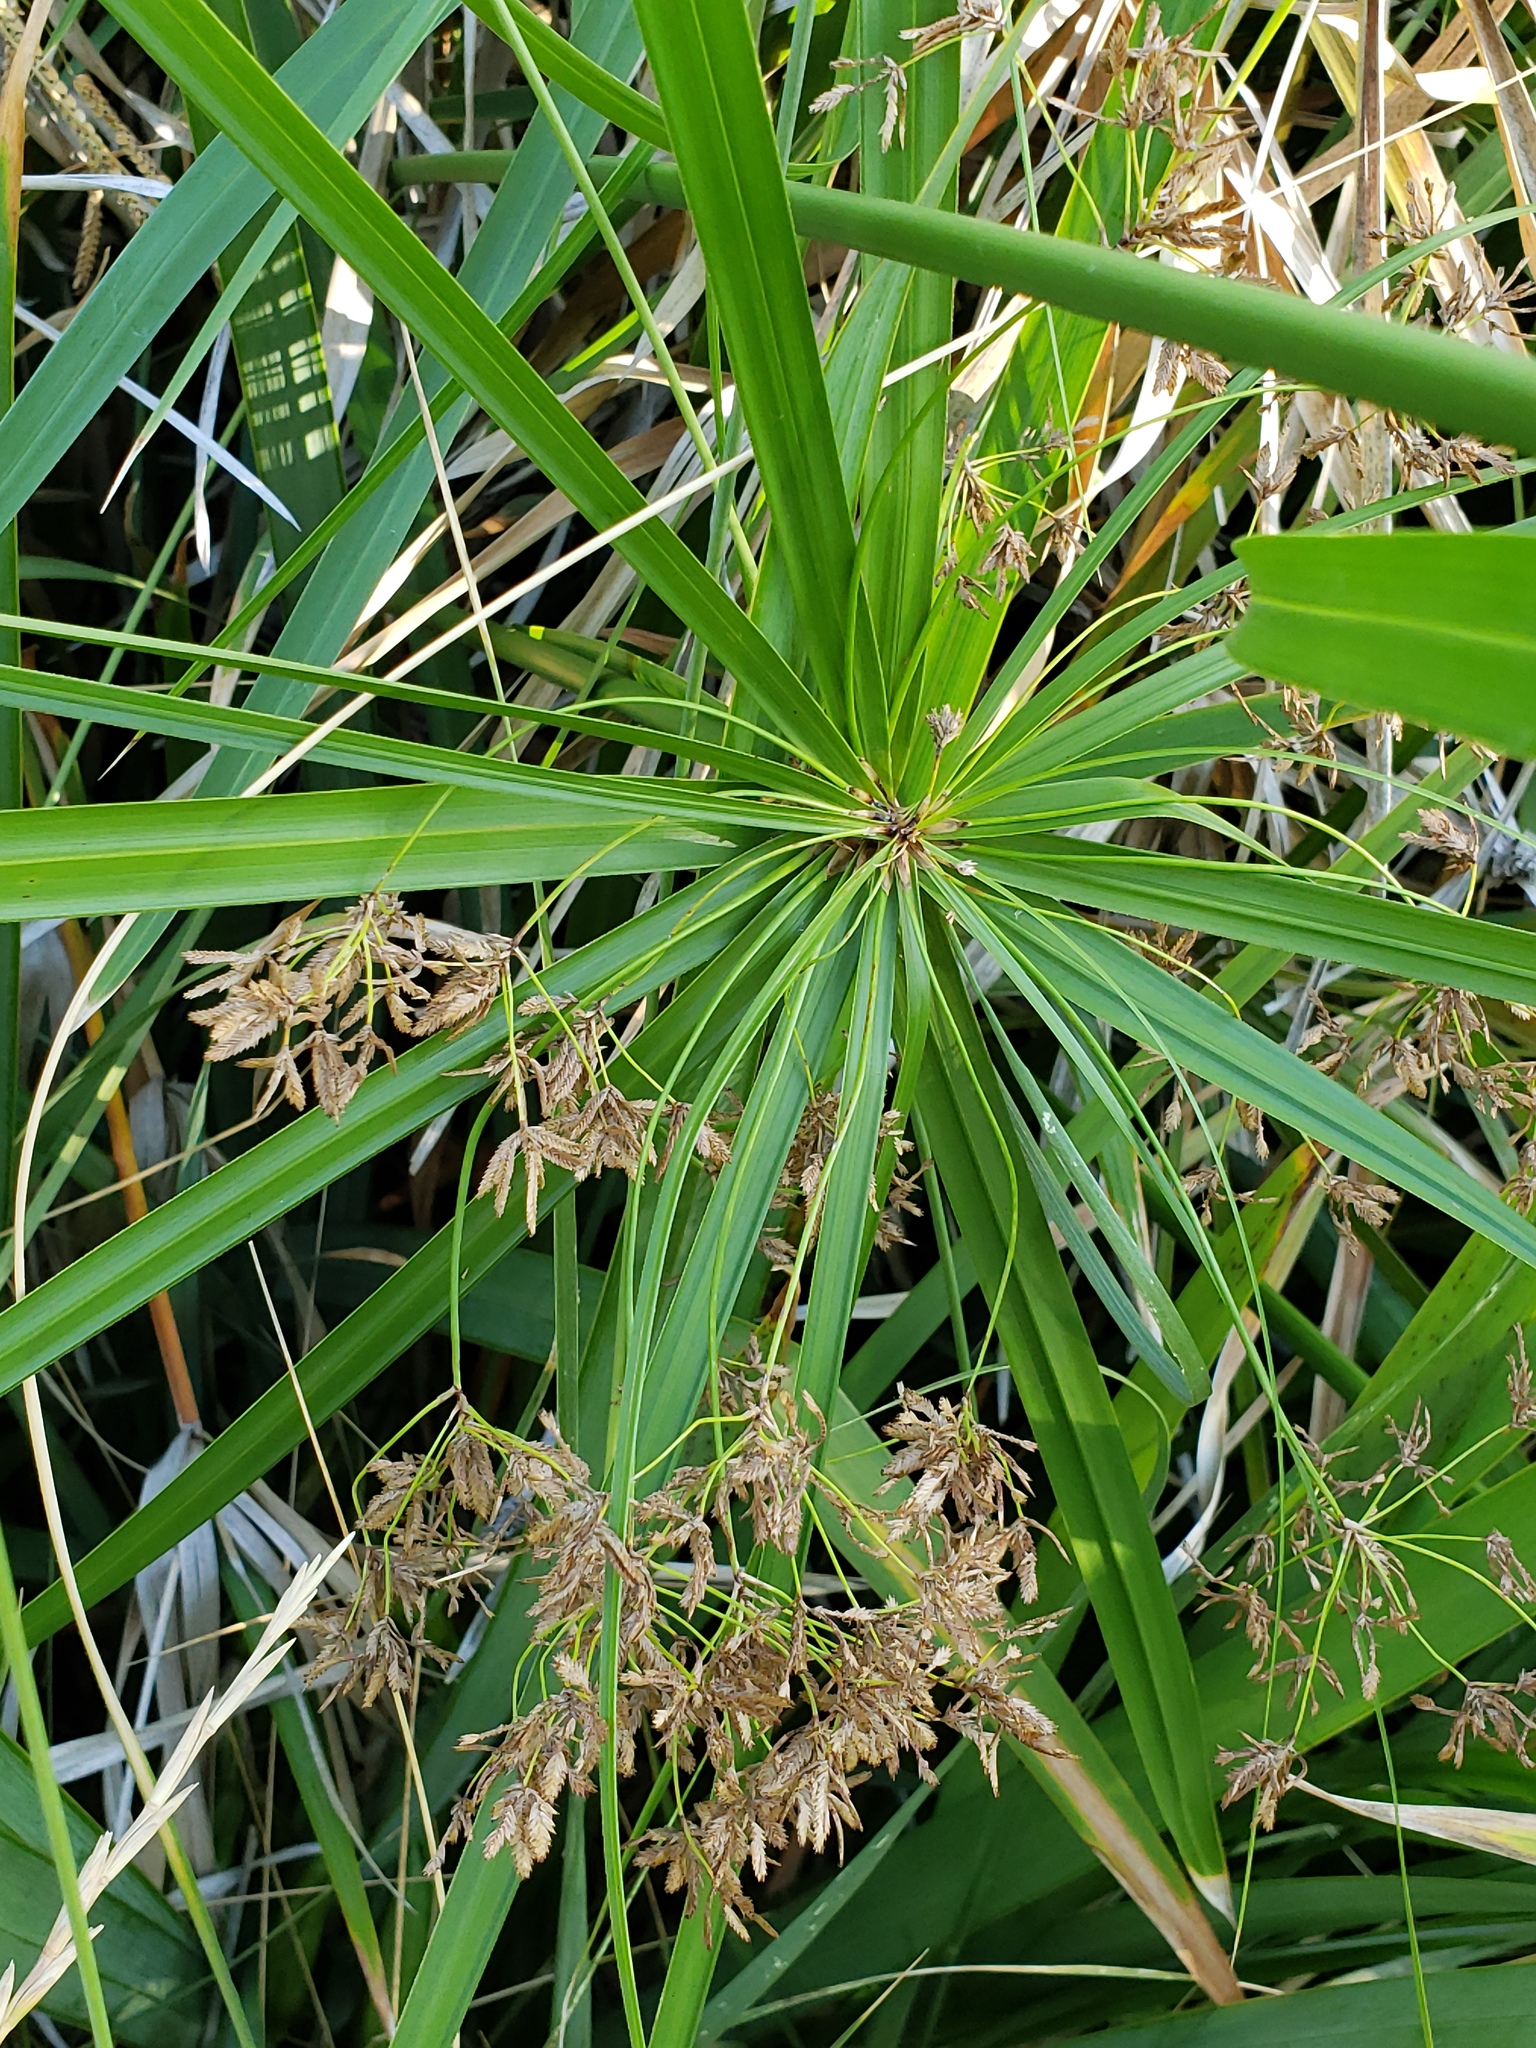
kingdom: Plantae
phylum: Tracheophyta
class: Liliopsida
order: Poales
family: Cyperaceae
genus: Cyperus
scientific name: Cyperus alternifolius
